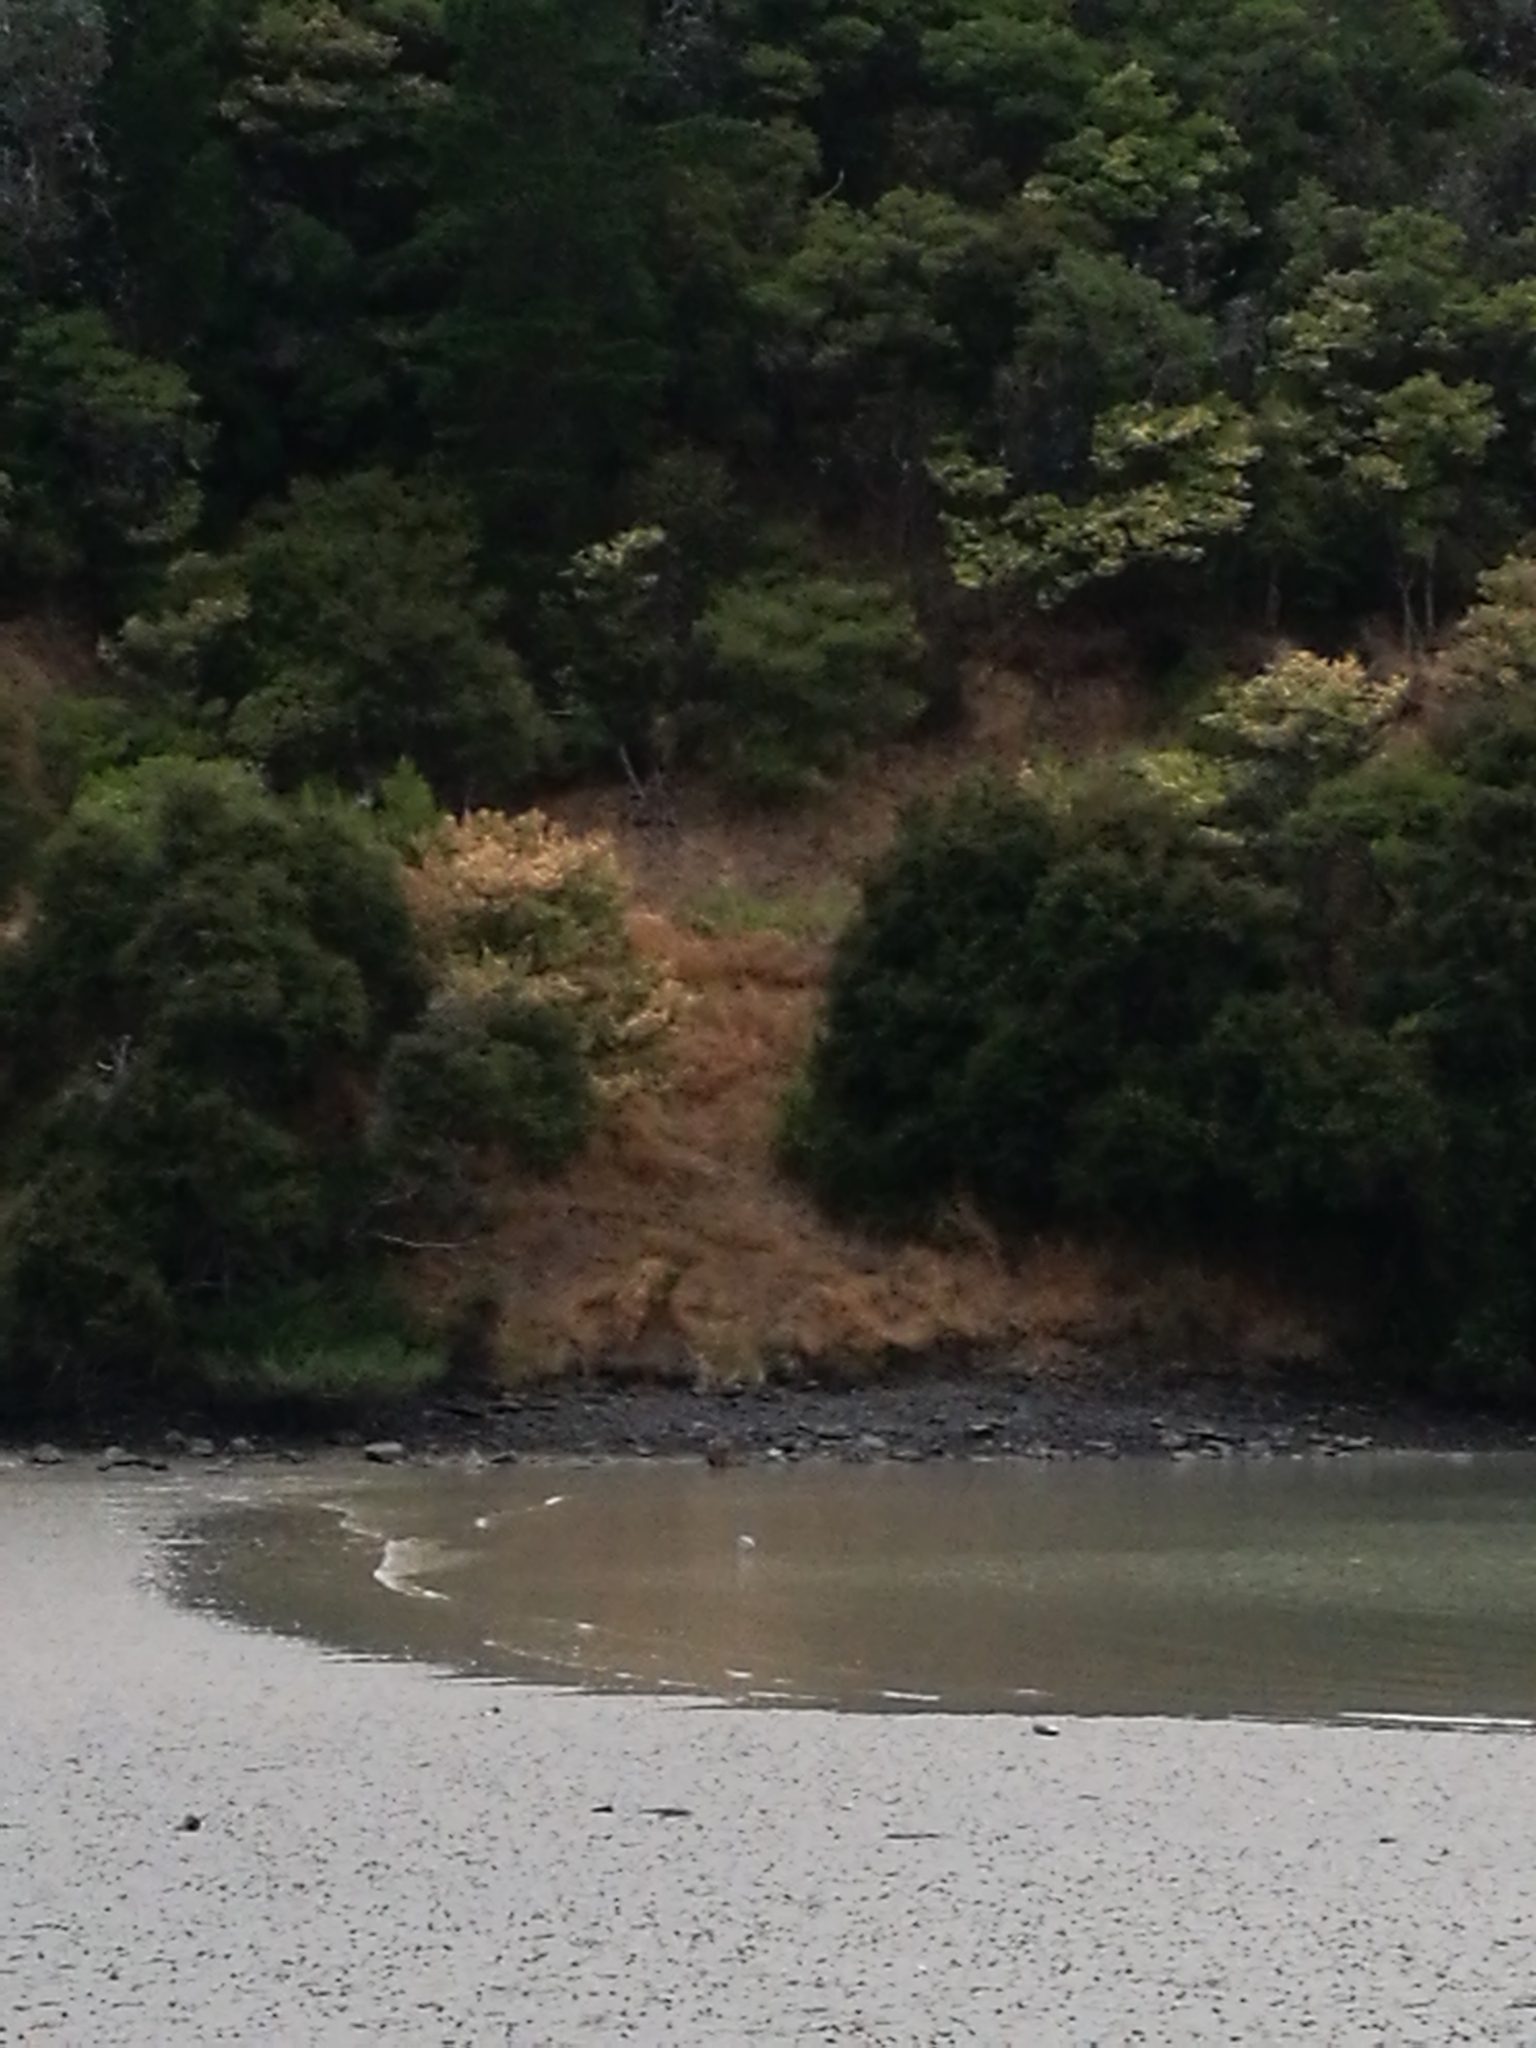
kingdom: Animalia
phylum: Chordata
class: Aves
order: Pelecaniformes
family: Ardeidae
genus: Egretta
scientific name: Egretta novaehollandiae
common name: White-faced heron
